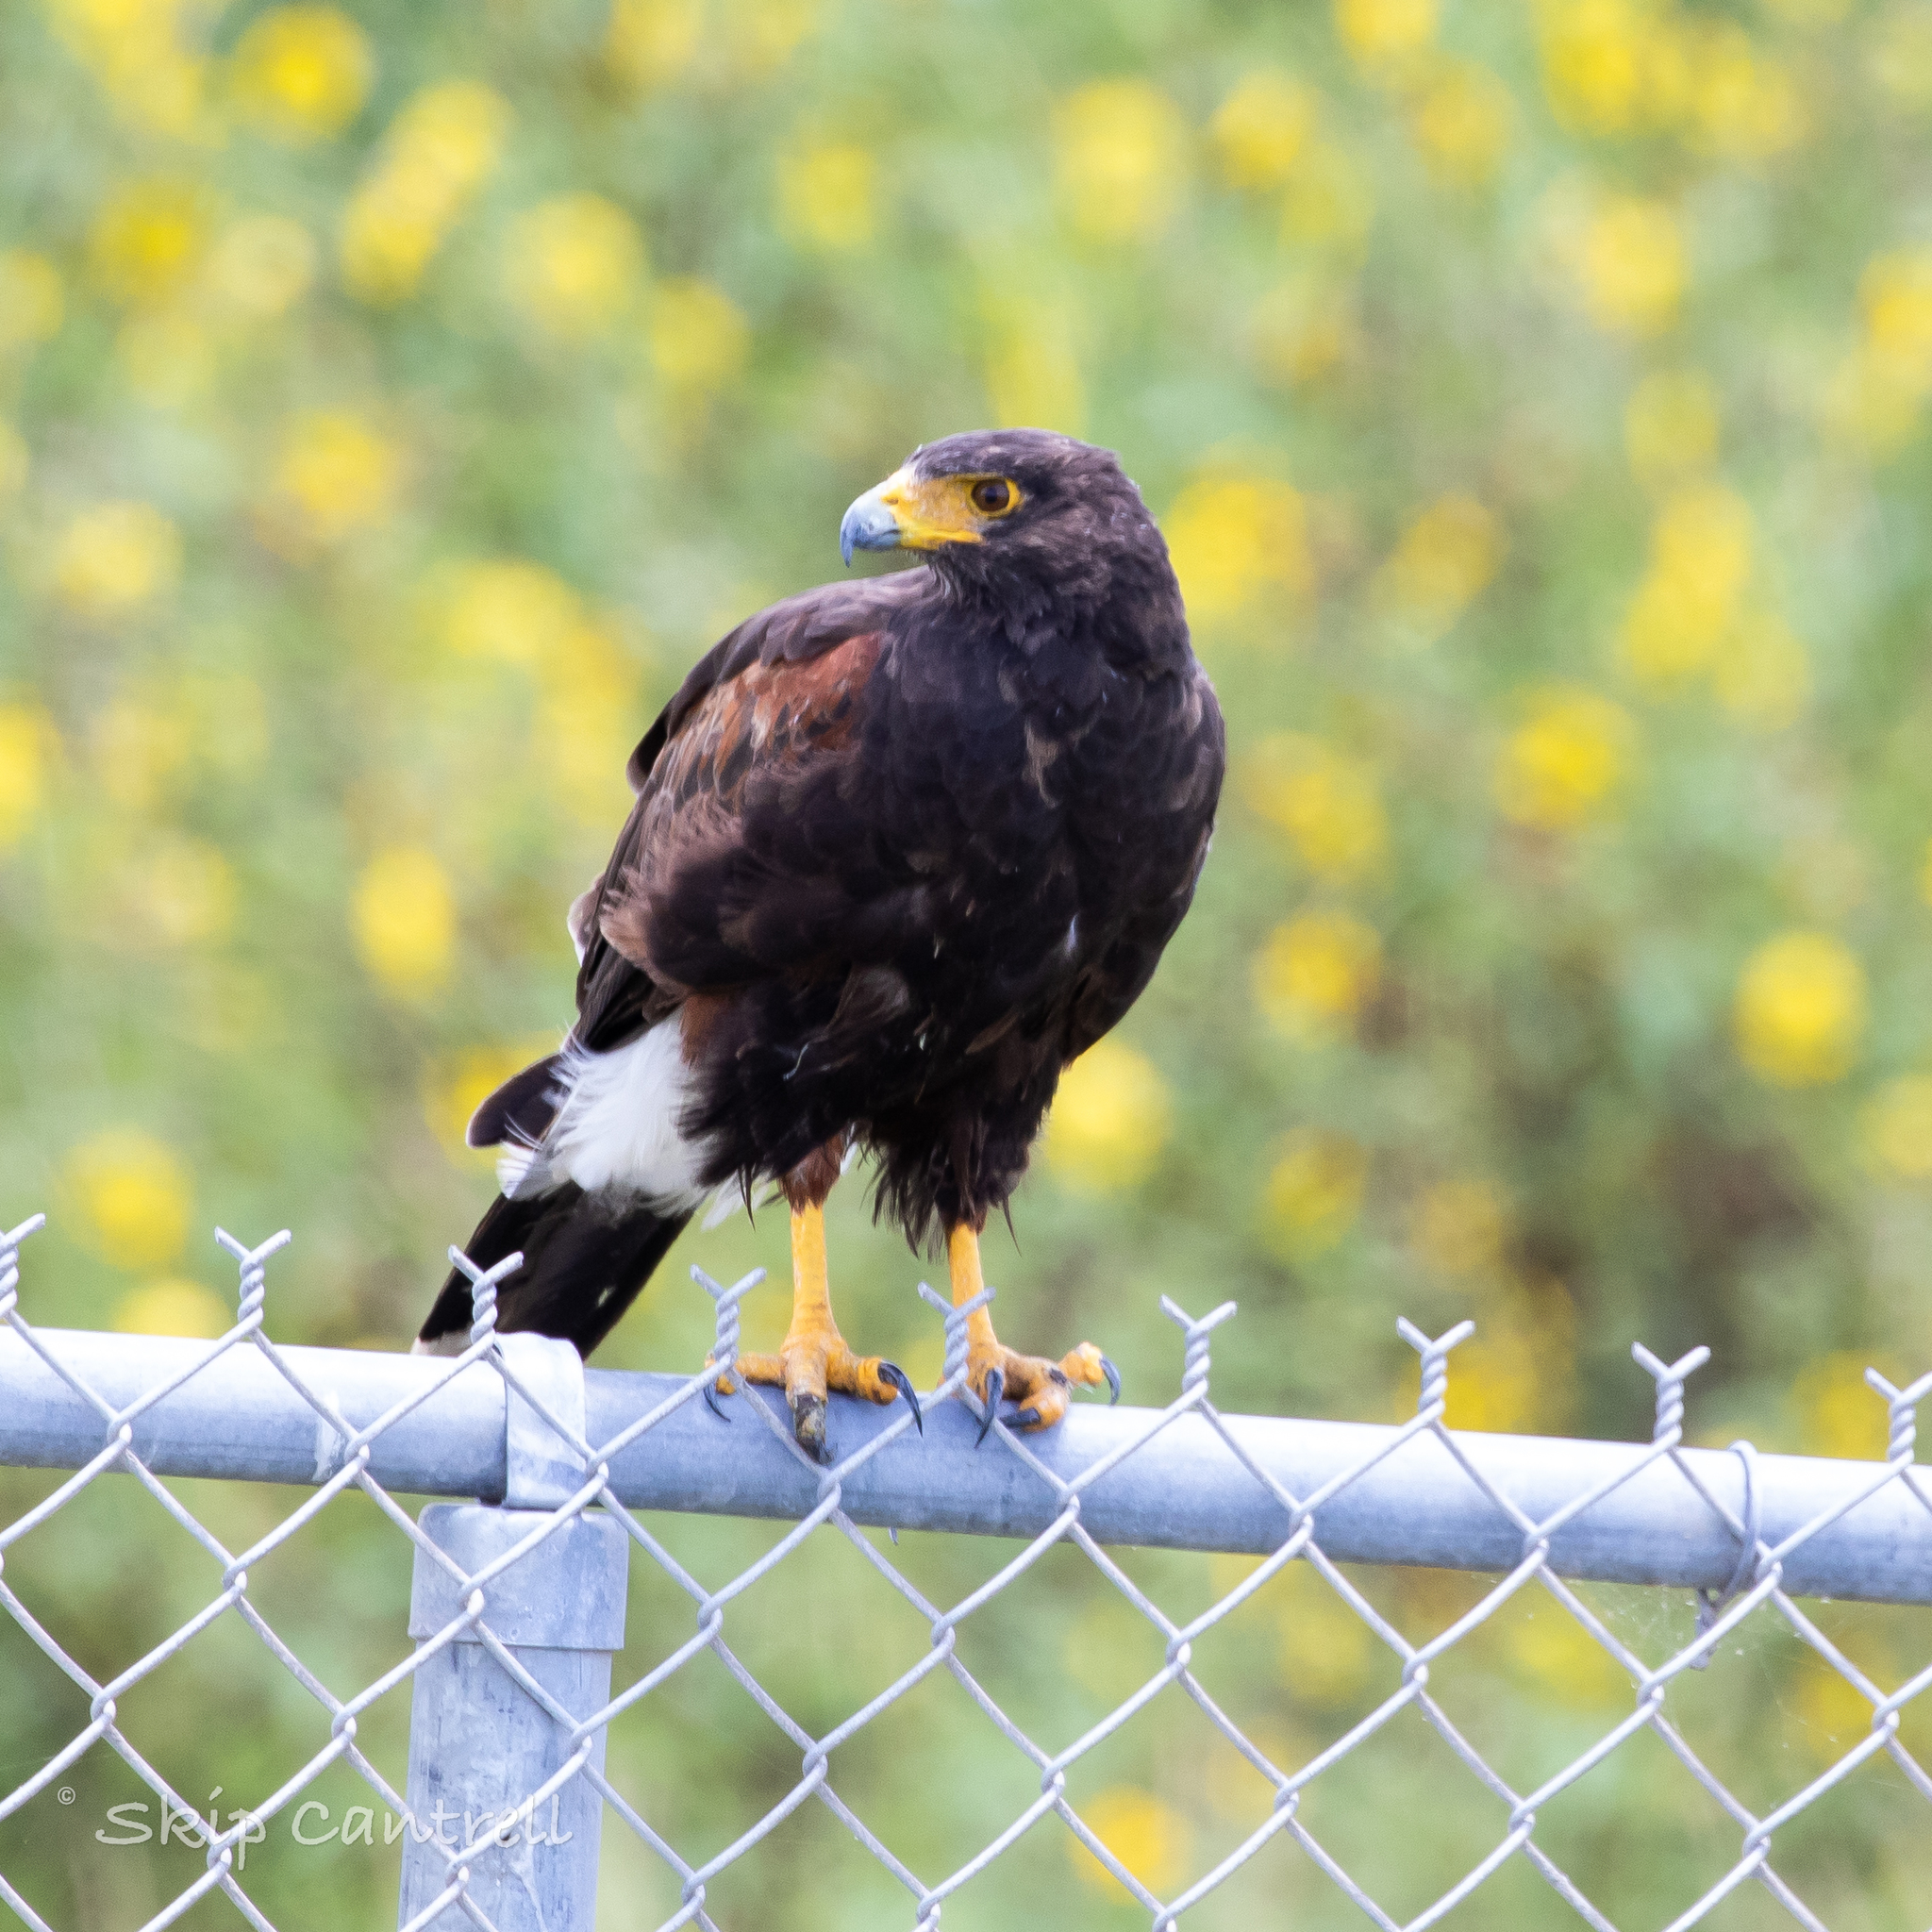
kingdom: Animalia
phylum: Chordata
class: Aves
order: Accipitriformes
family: Accipitridae
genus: Parabuteo
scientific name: Parabuteo unicinctus
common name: Harris's hawk
